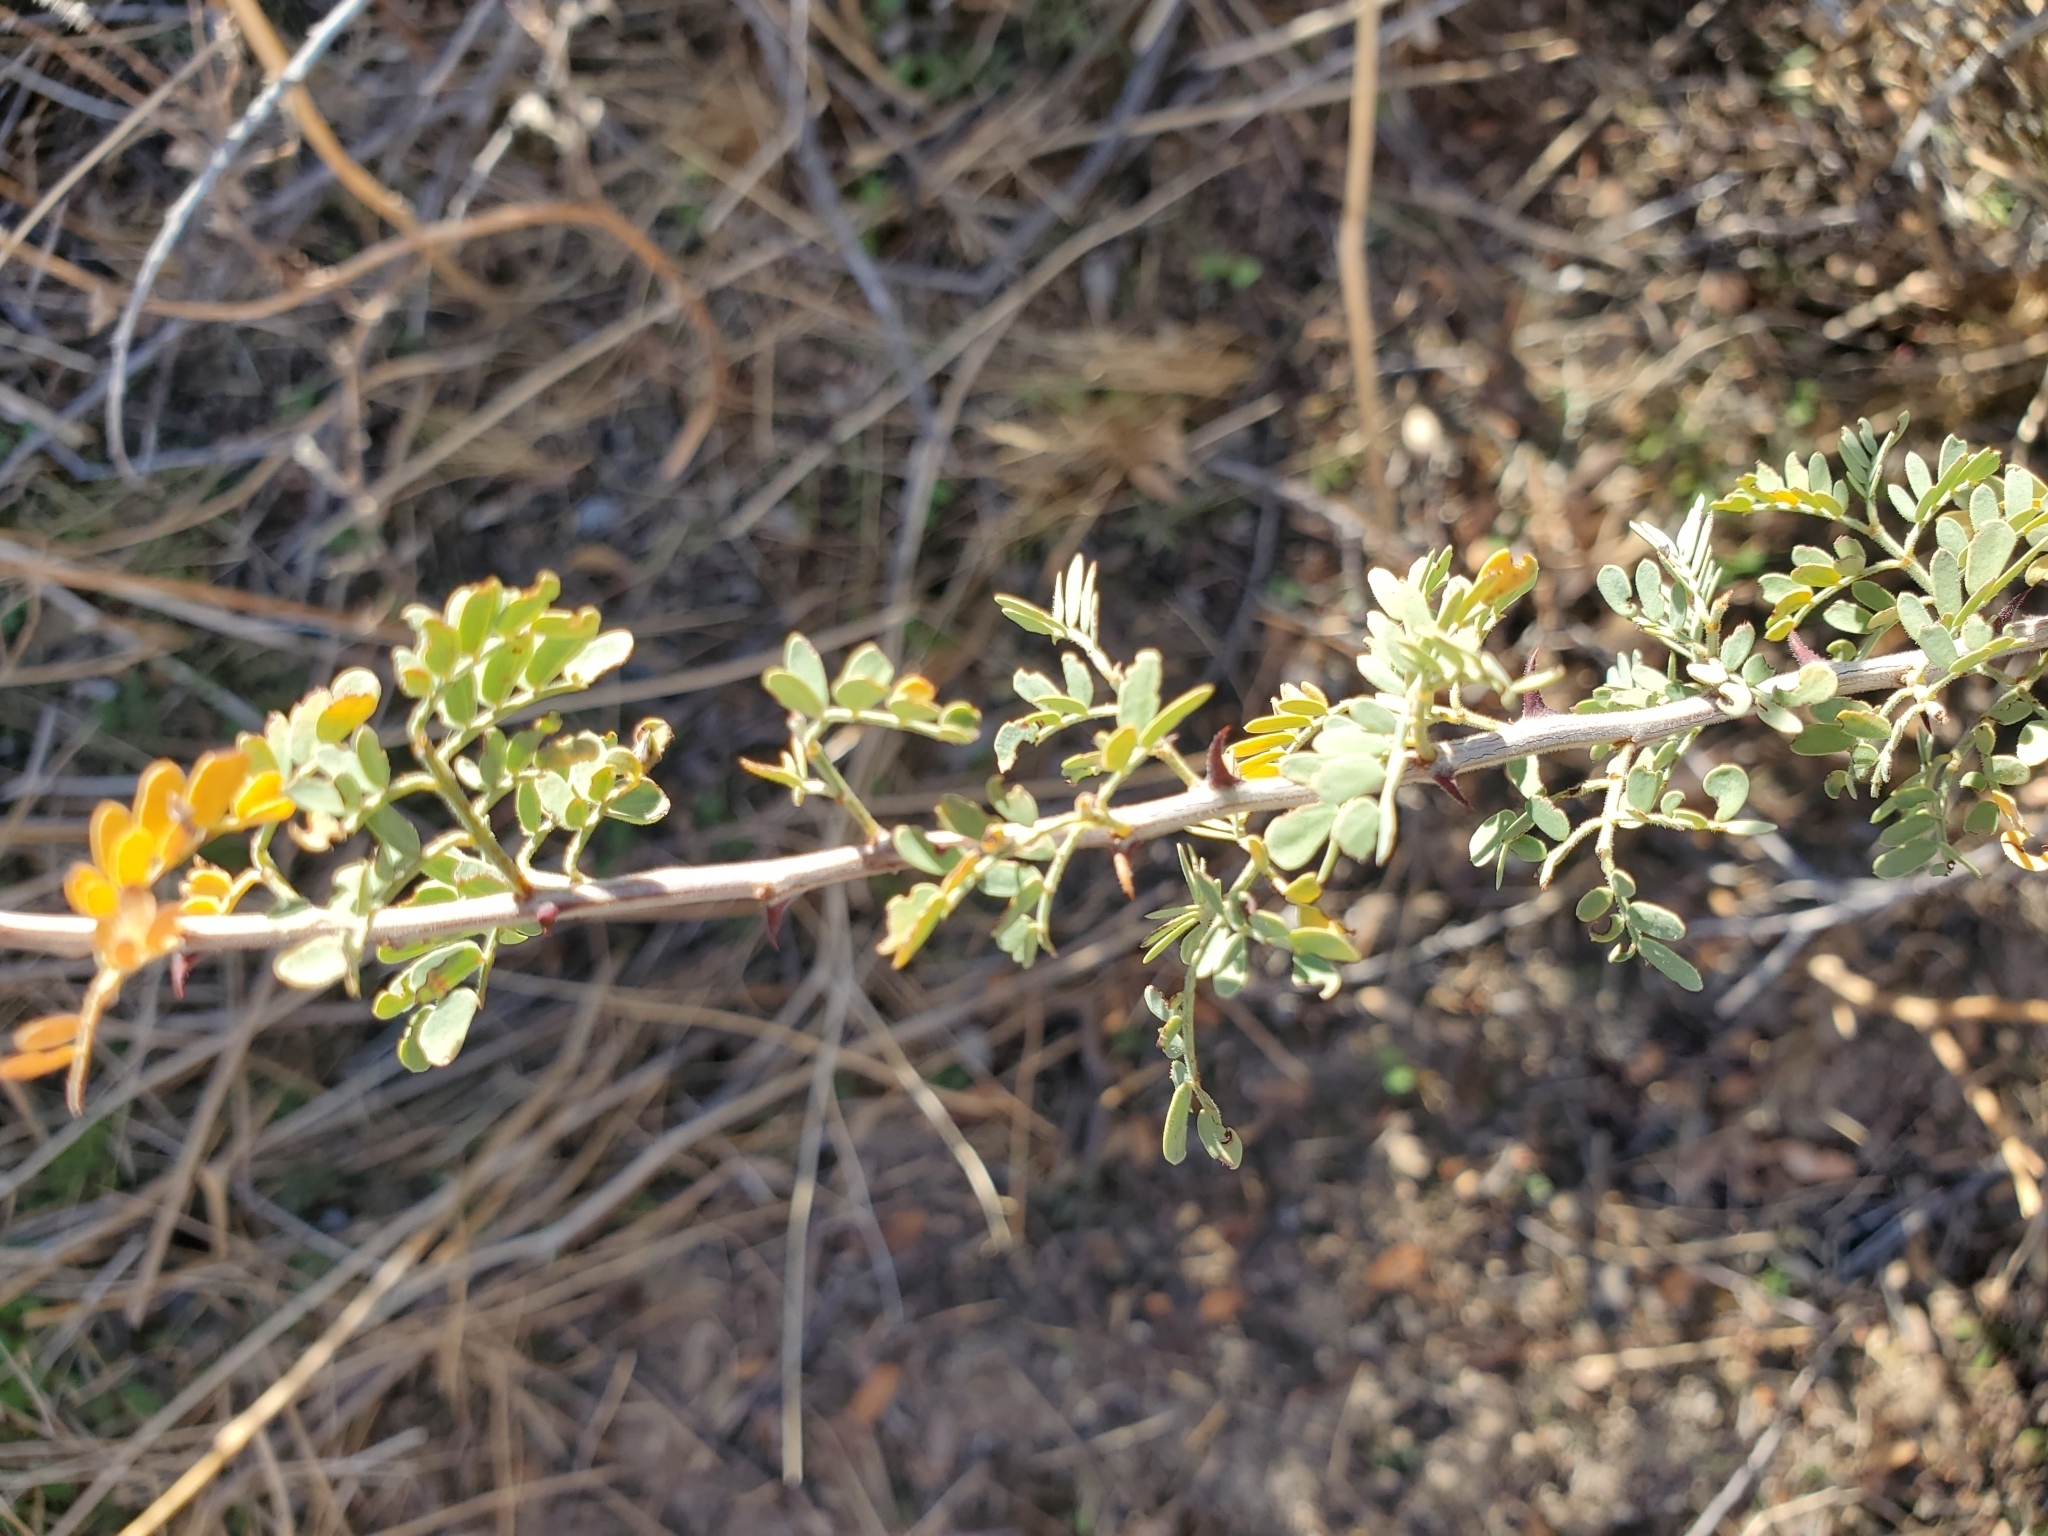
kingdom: Plantae
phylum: Tracheophyta
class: Magnoliopsida
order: Fabales
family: Fabaceae
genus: Senegalia
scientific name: Senegalia greggii
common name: Texas-mimosa
